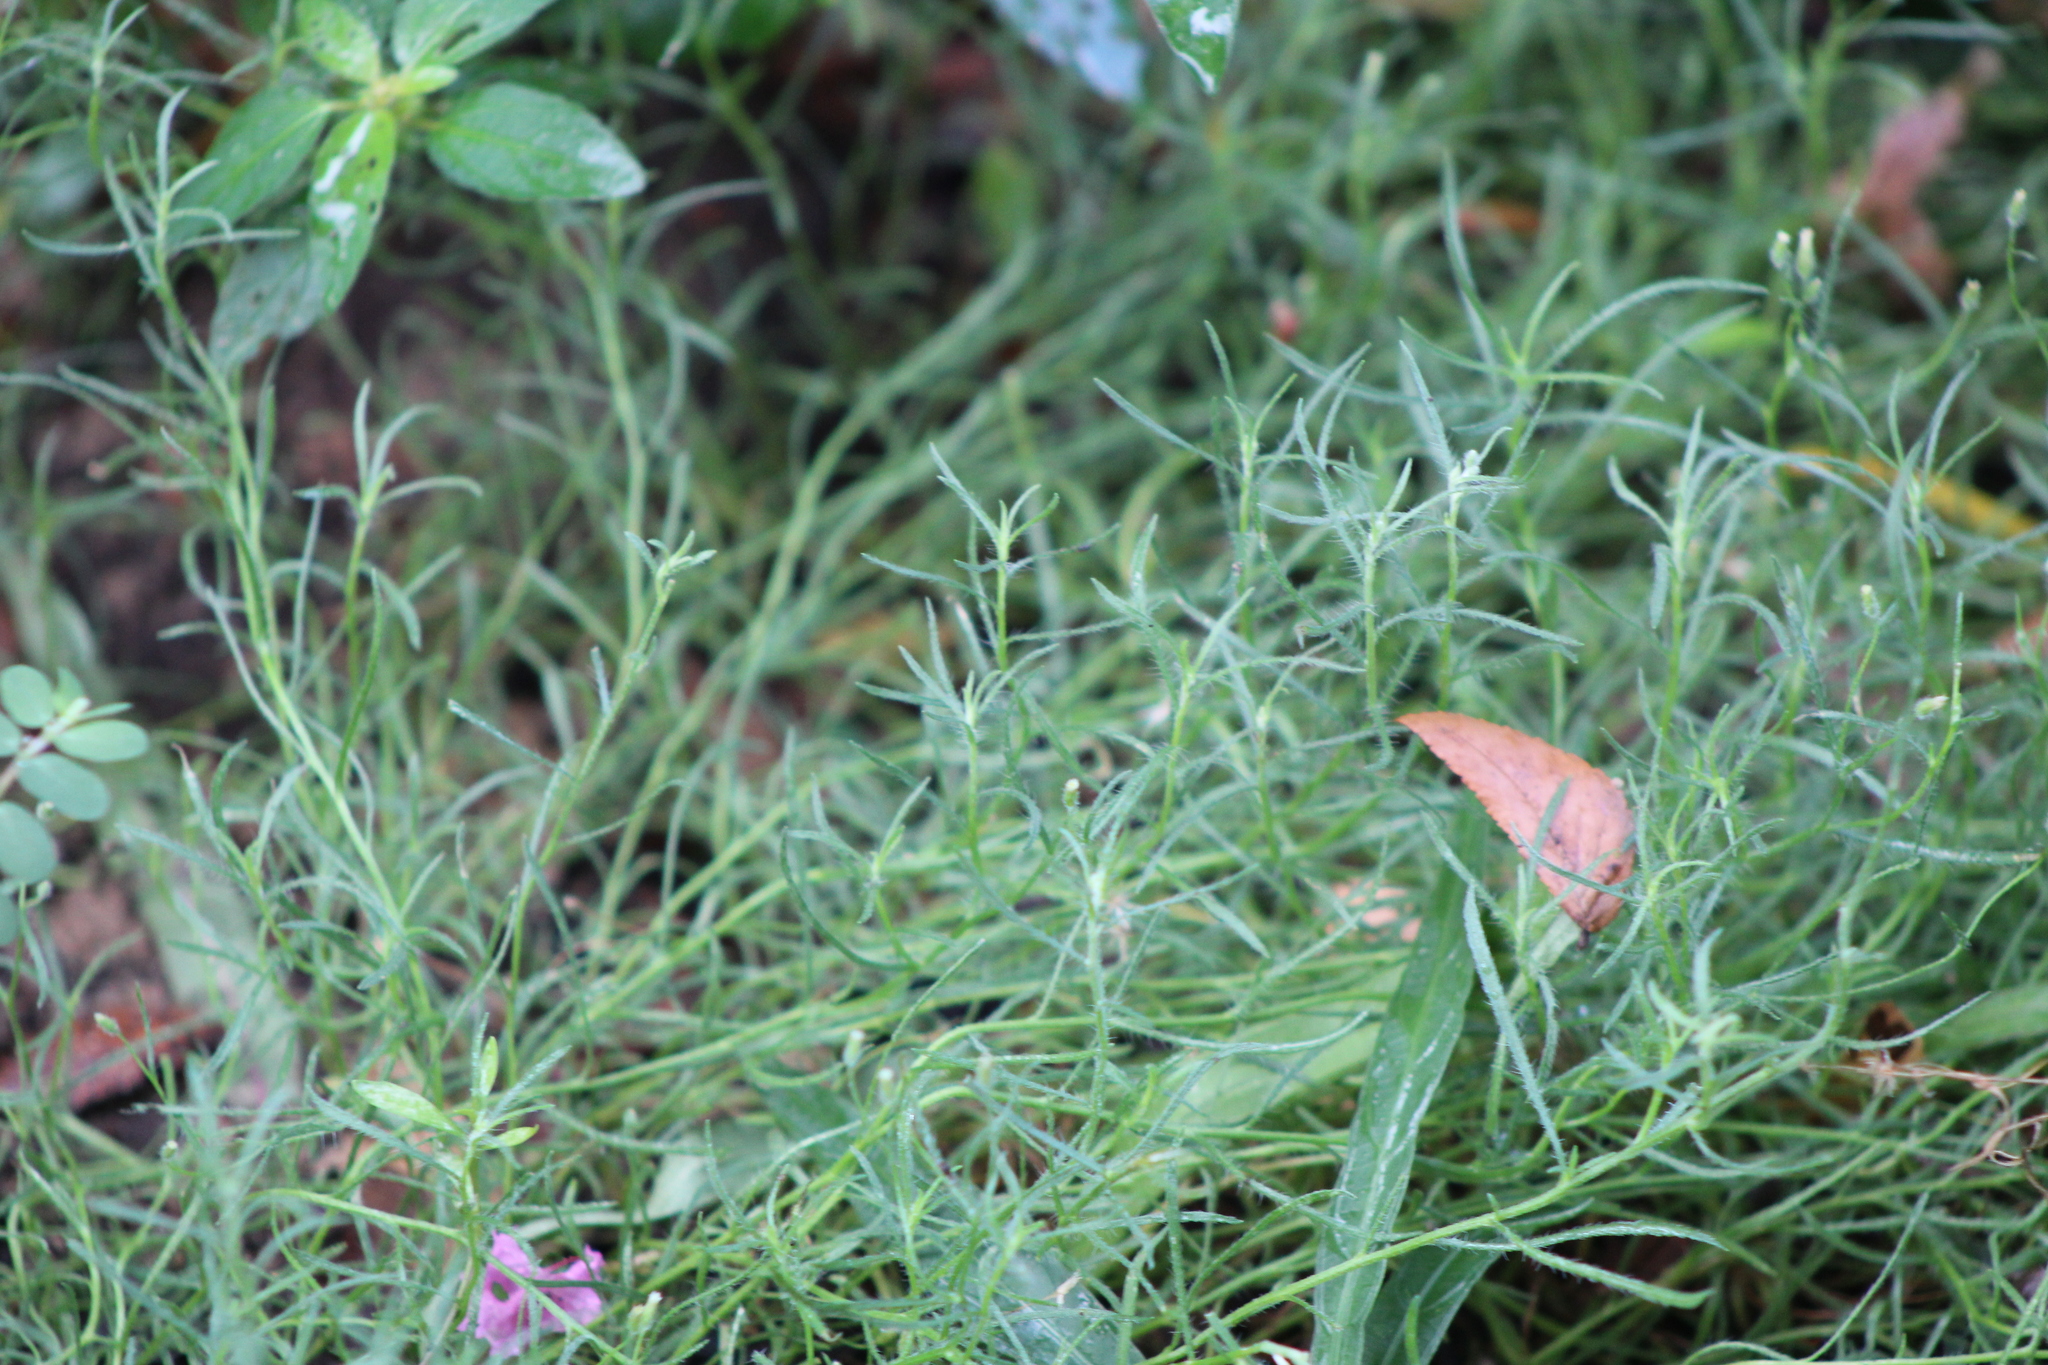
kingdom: Plantae
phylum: Tracheophyta
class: Magnoliopsida
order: Asterales
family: Asteraceae
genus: Erigeron
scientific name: Erigeron divaricatus
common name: Dwarf conyza
